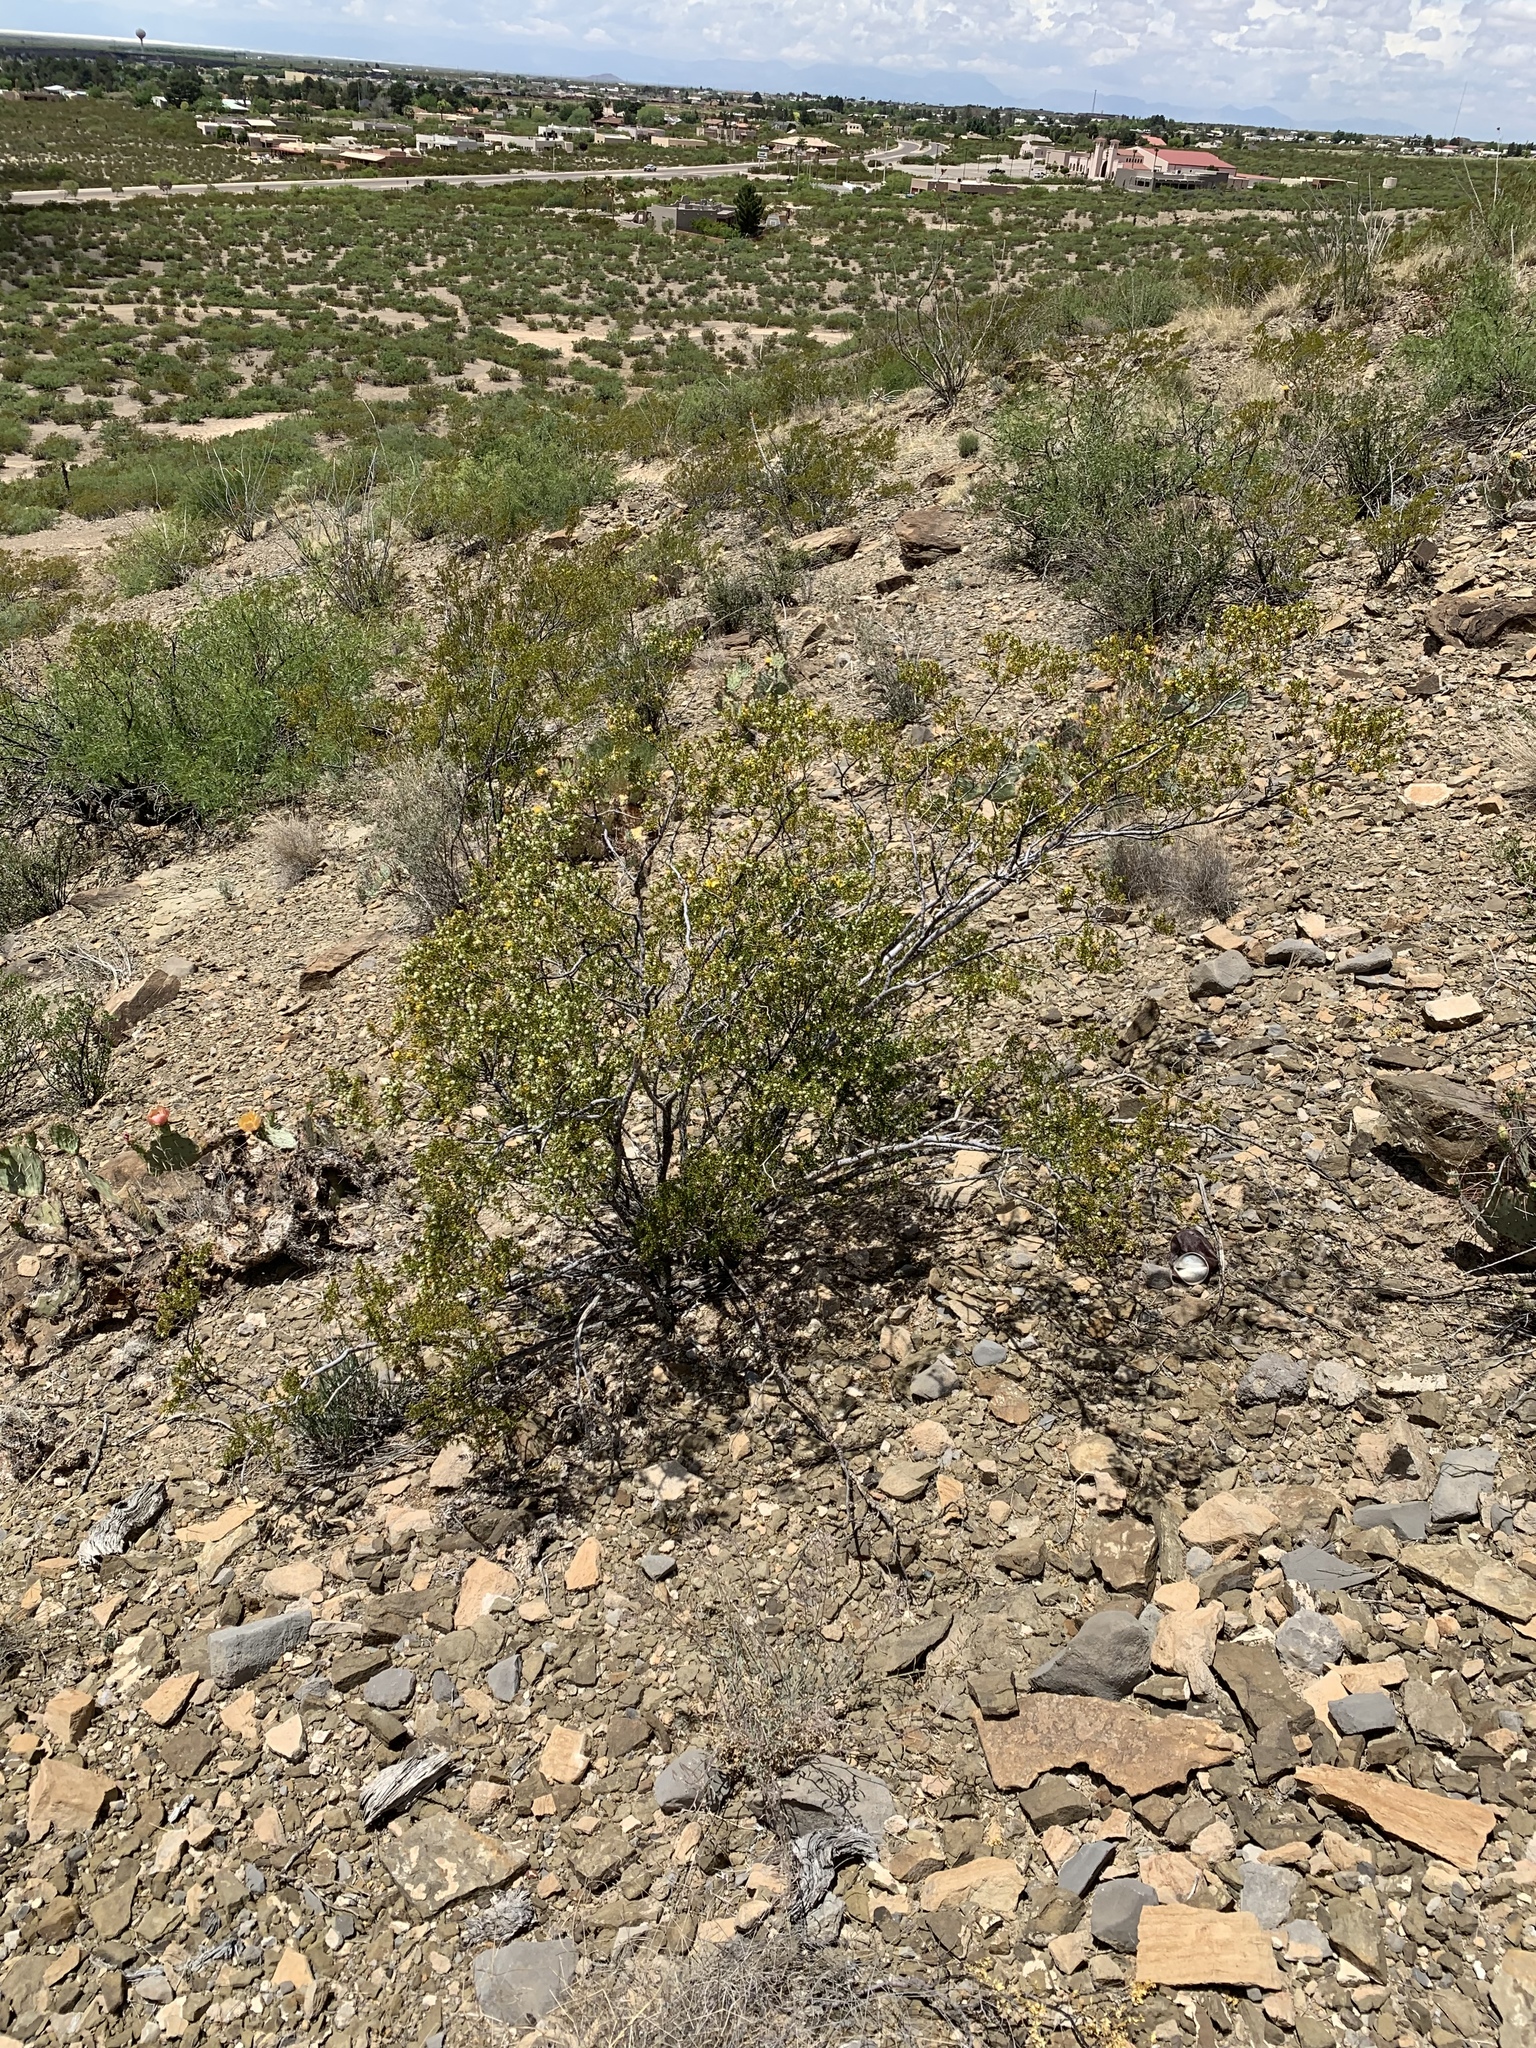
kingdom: Plantae
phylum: Tracheophyta
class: Magnoliopsida
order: Zygophyllales
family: Zygophyllaceae
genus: Larrea
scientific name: Larrea tridentata
